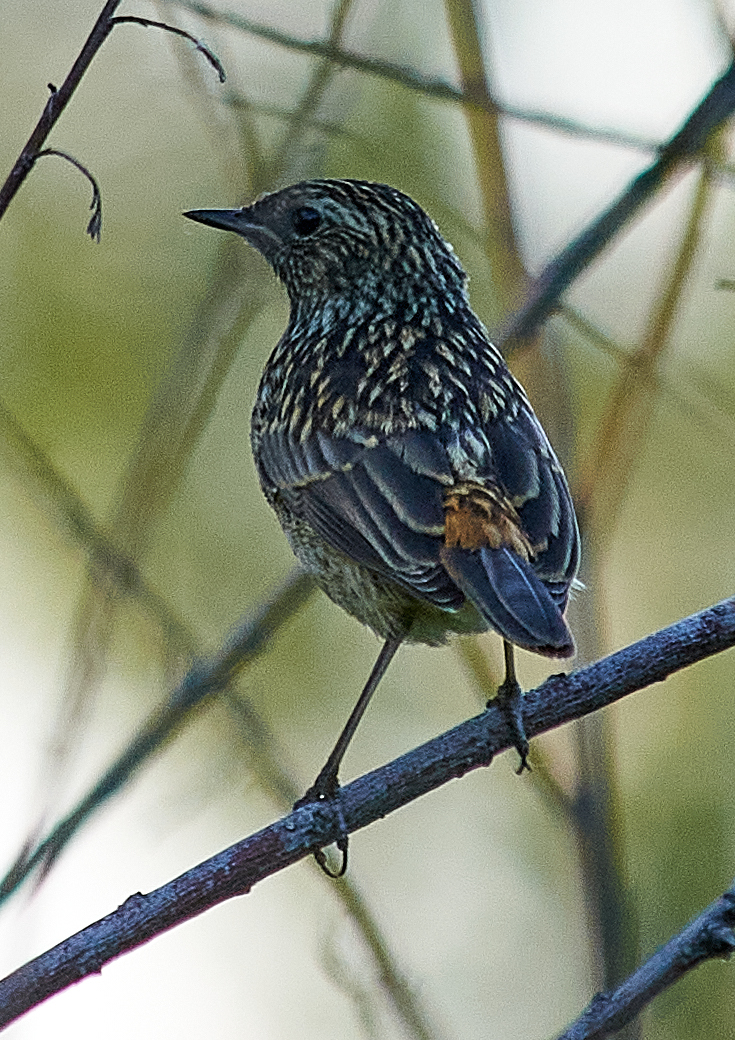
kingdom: Animalia
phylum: Chordata
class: Aves
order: Passeriformes
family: Muscicapidae
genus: Luscinia
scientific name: Luscinia svecica
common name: Bluethroat
